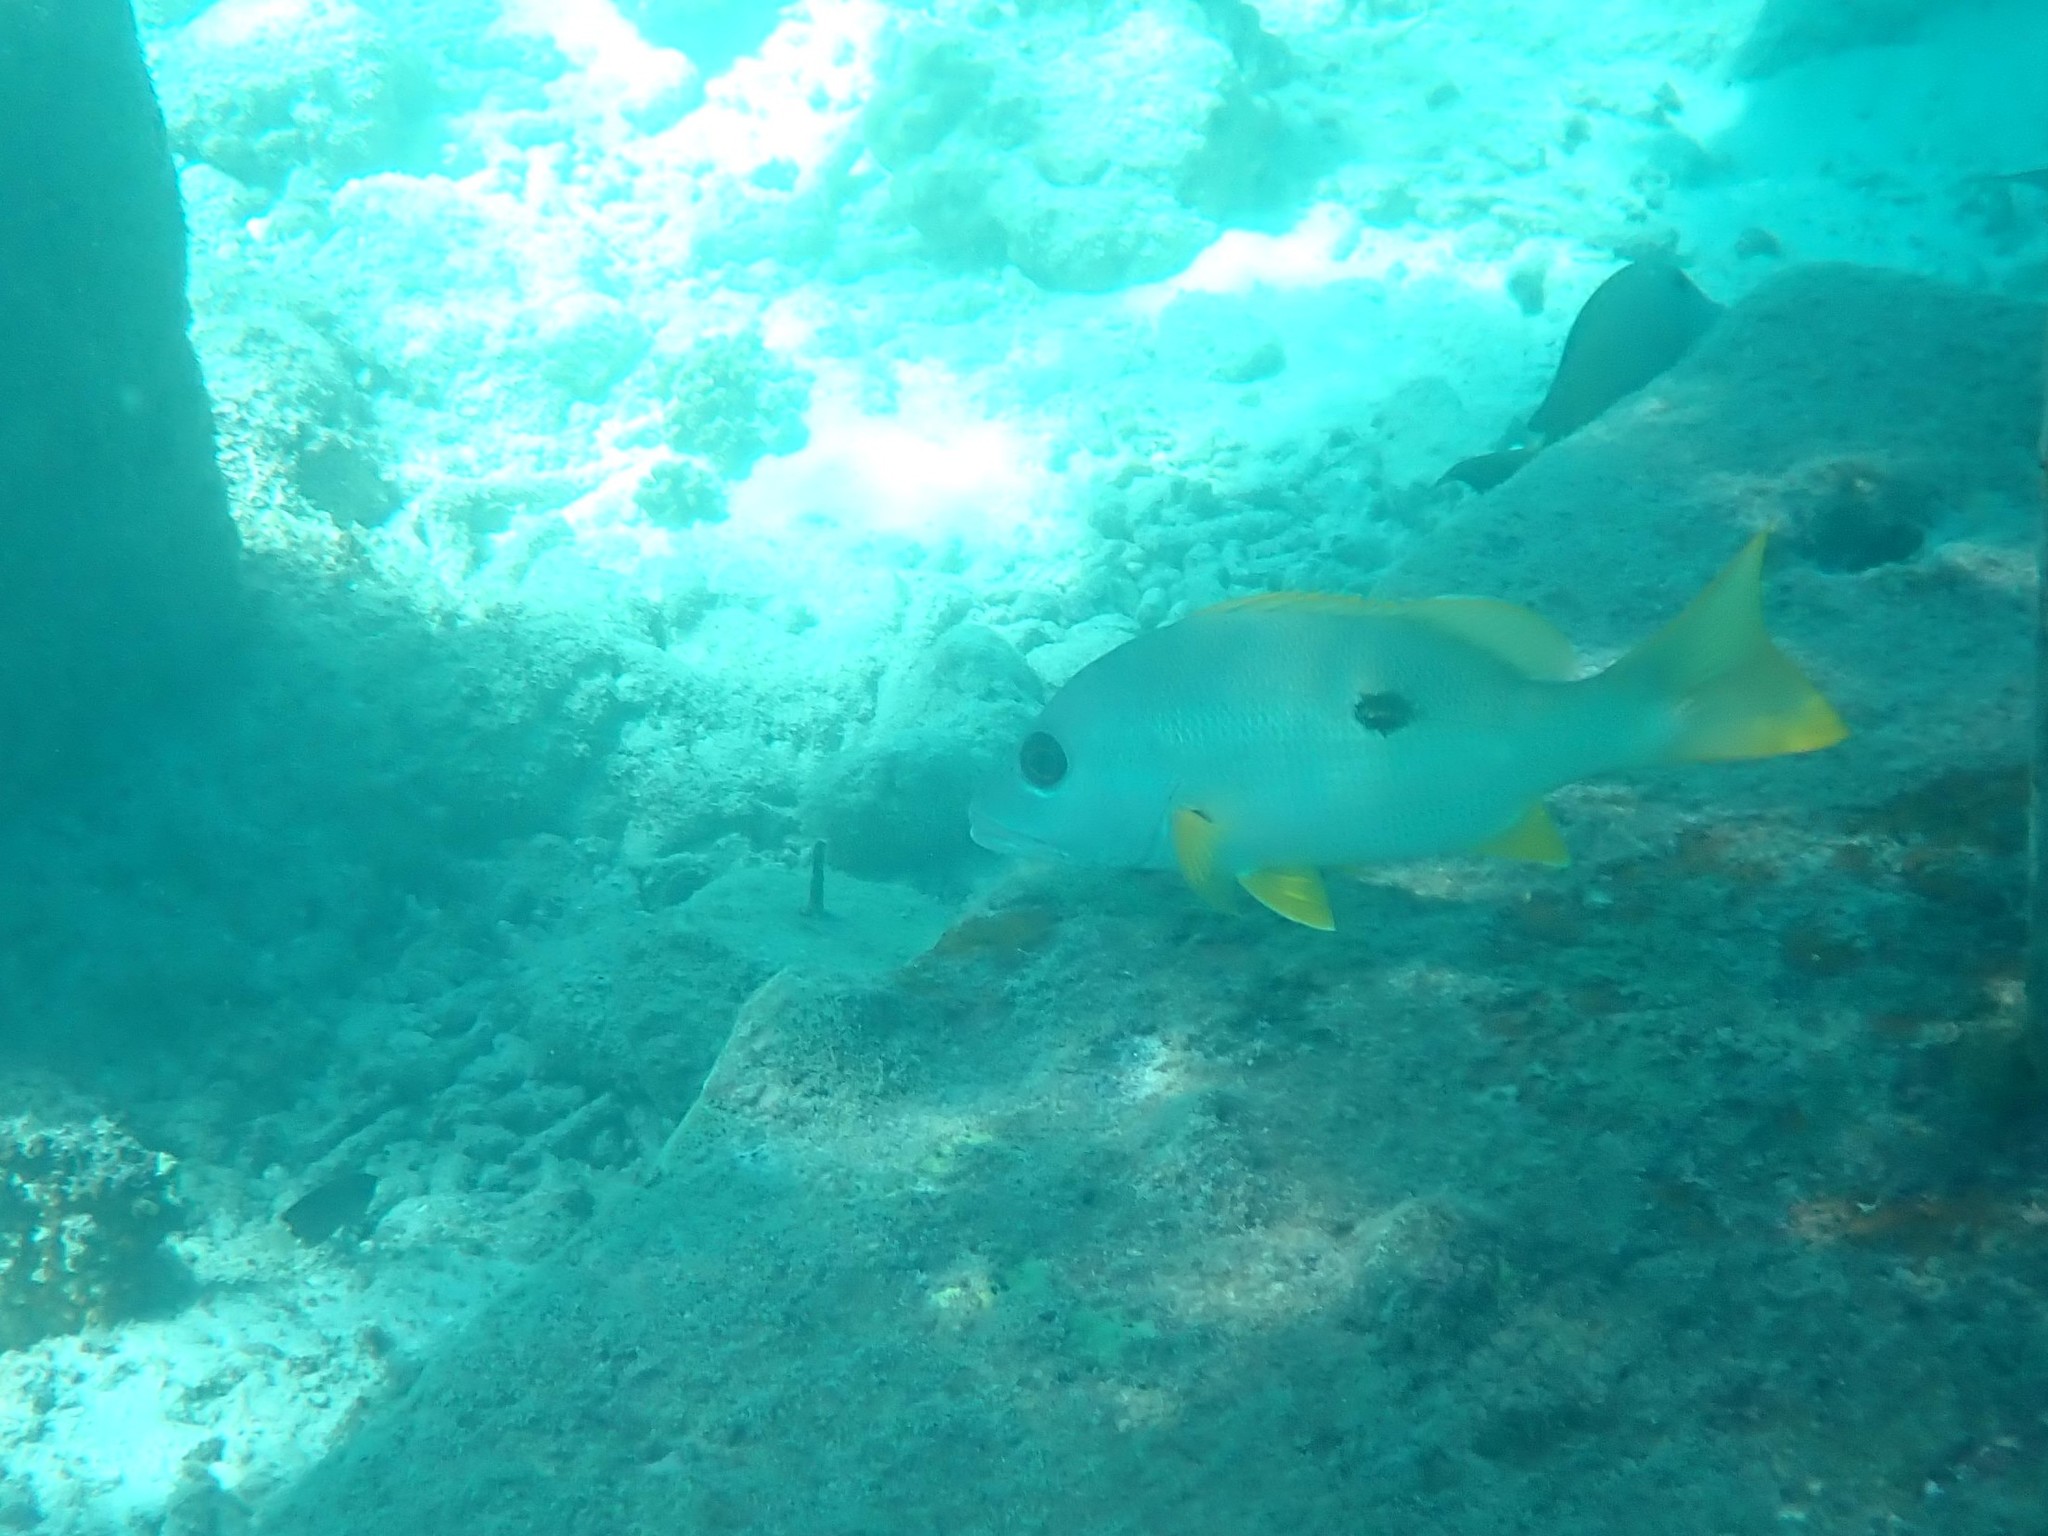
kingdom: Animalia
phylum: Chordata
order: Perciformes
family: Lutjanidae
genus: Lutjanus
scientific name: Lutjanus monostigma
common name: Onespot snapper
